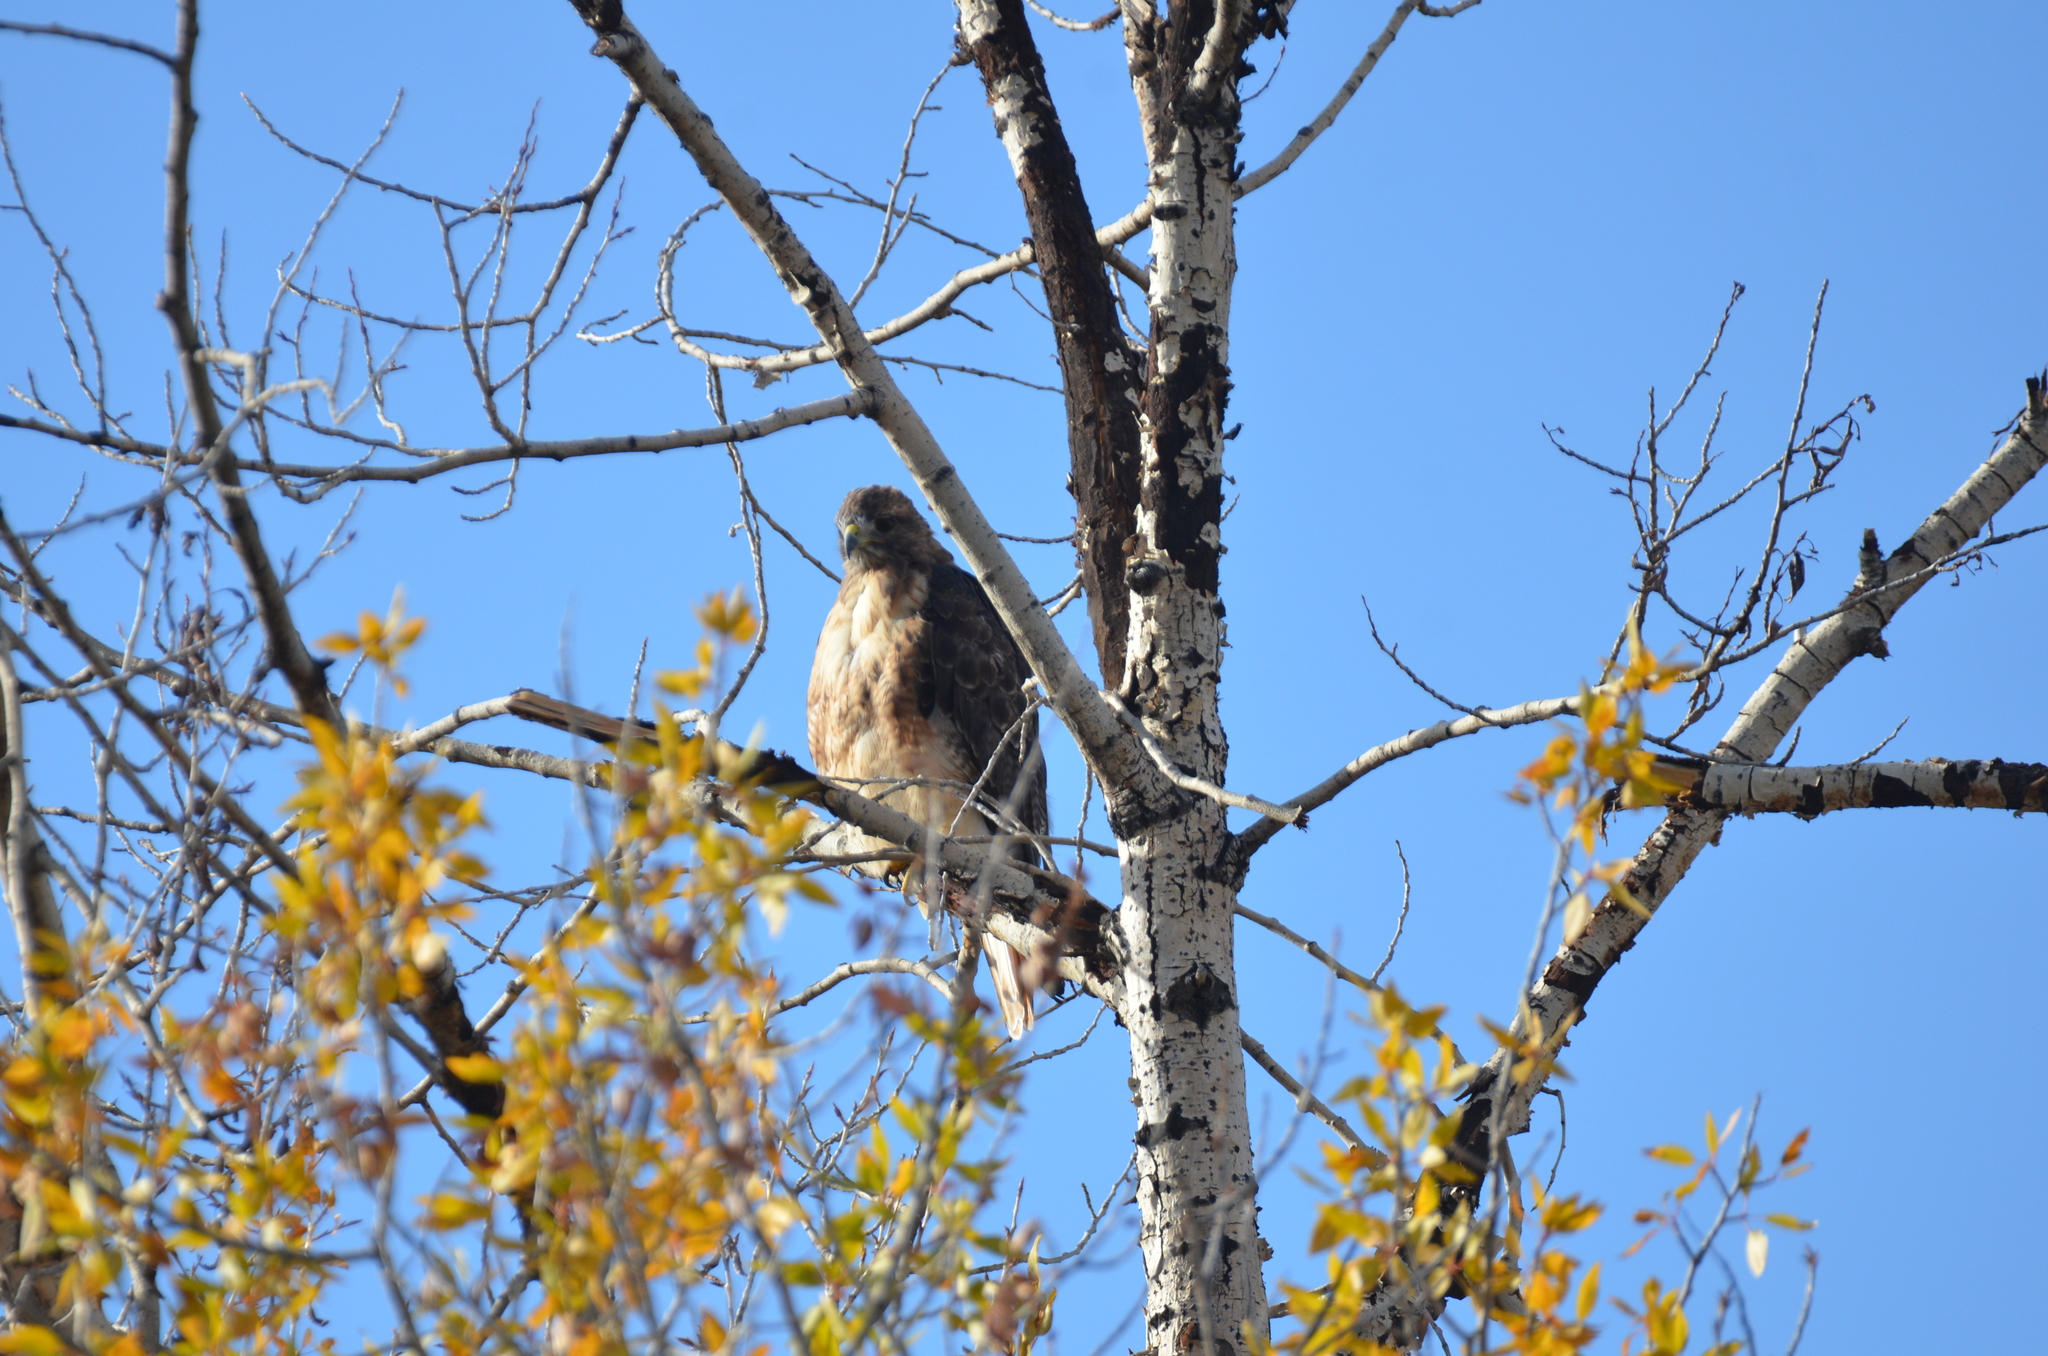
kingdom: Animalia
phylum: Chordata
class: Aves
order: Accipitriformes
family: Accipitridae
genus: Buteo
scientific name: Buteo jamaicensis
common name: Red-tailed hawk
